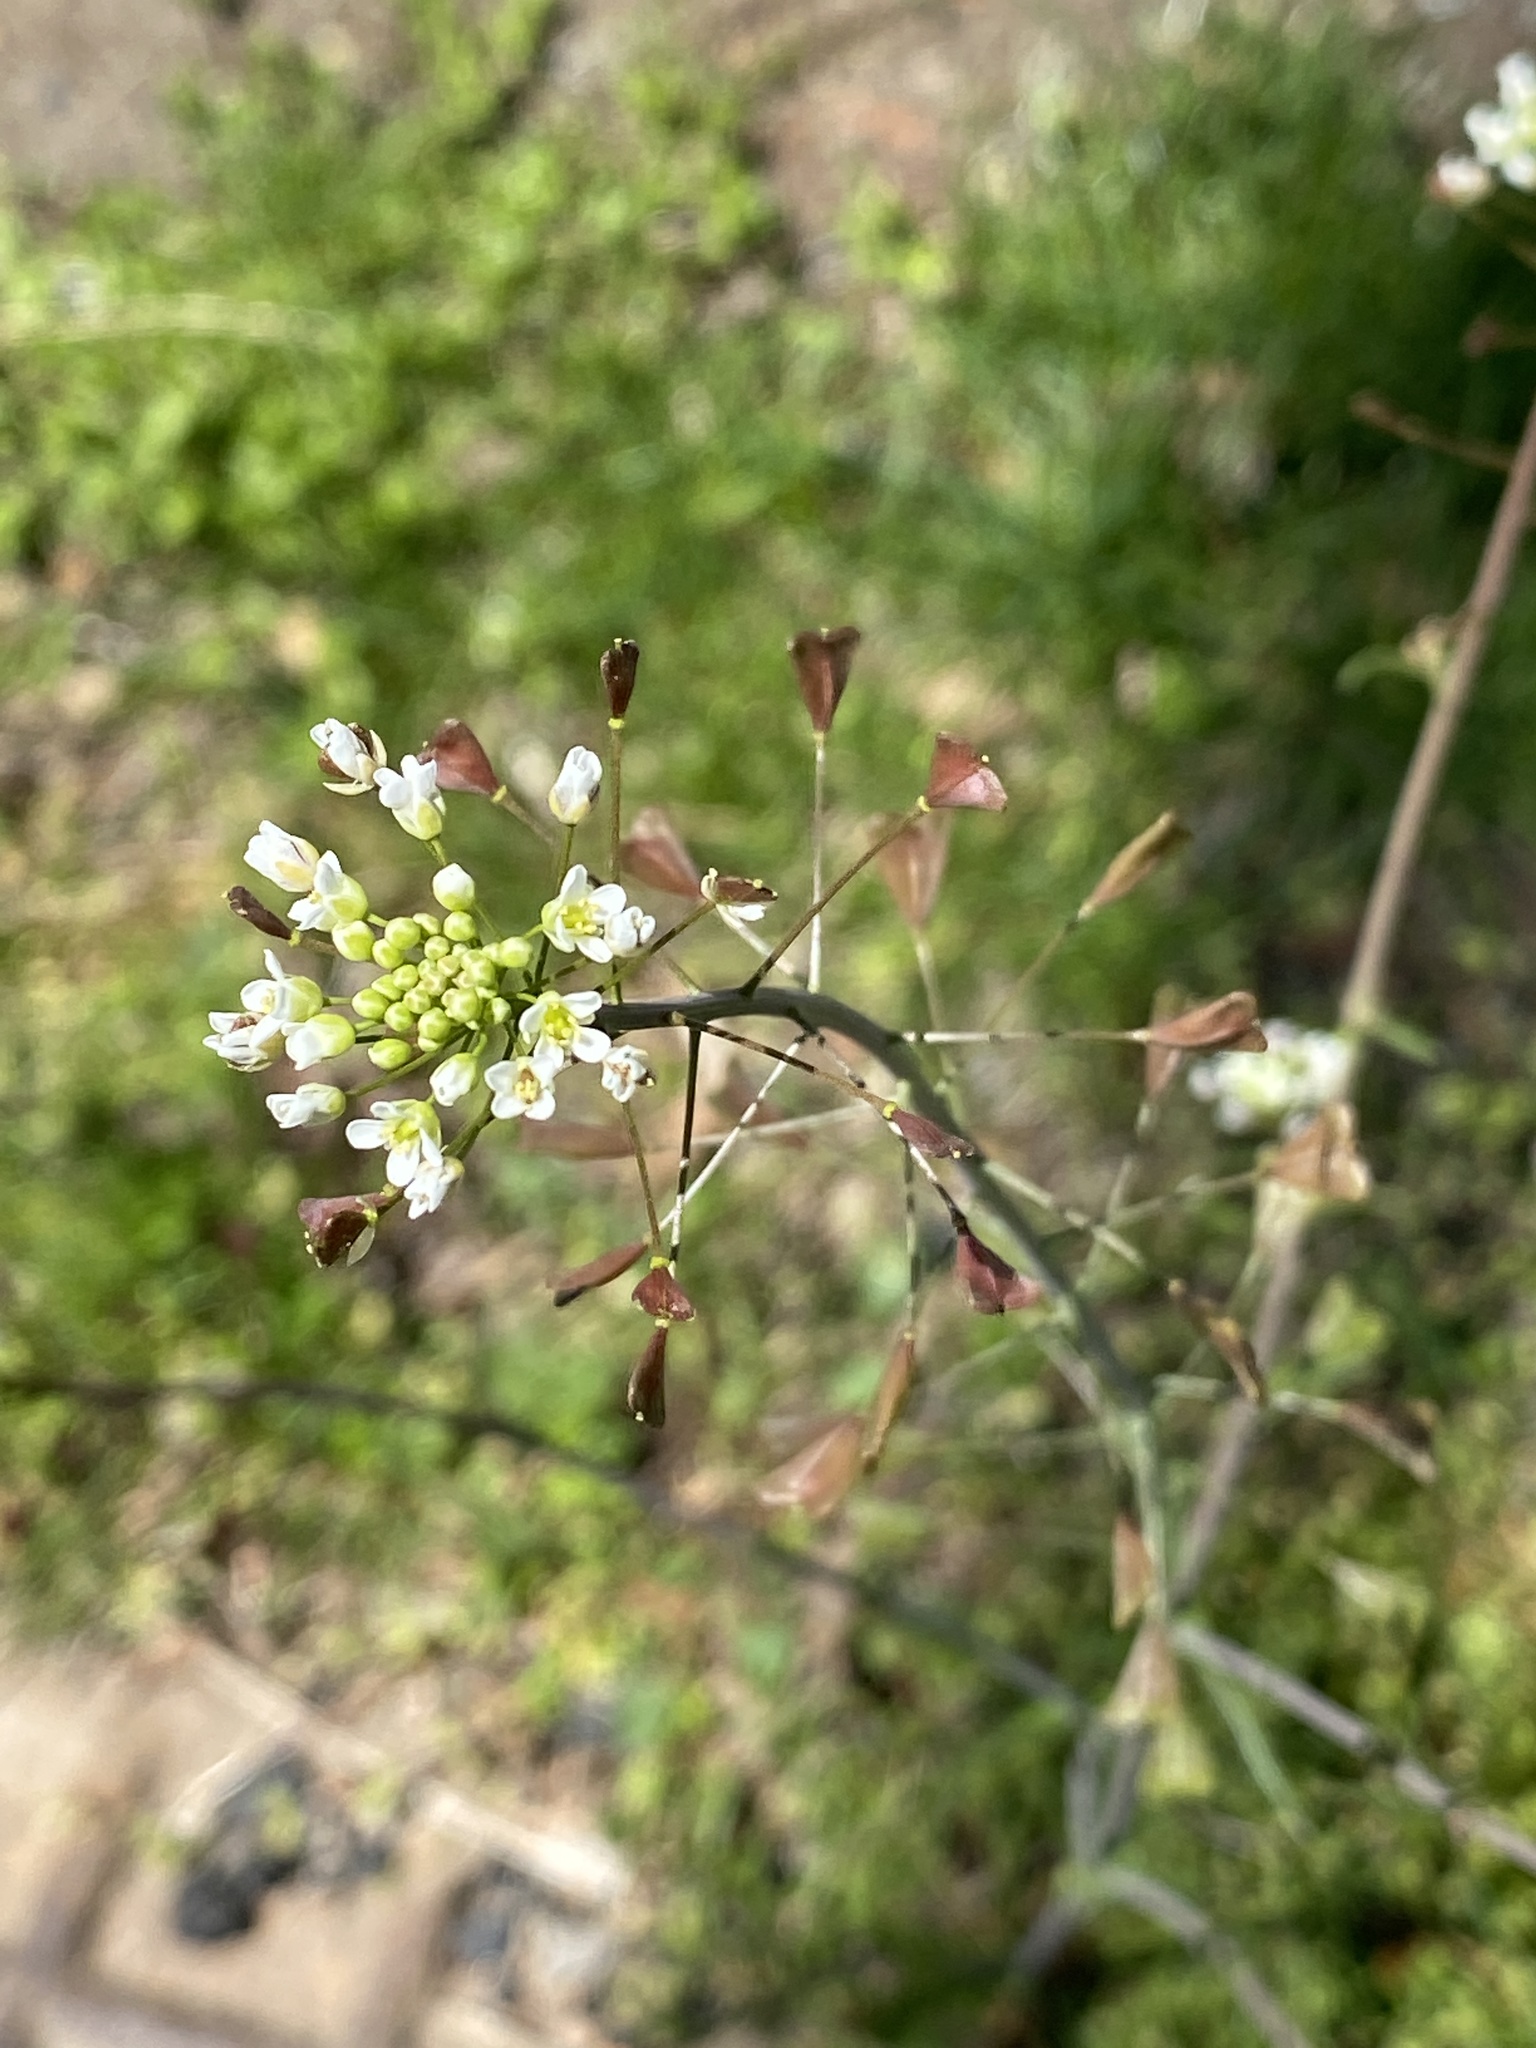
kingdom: Plantae
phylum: Tracheophyta
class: Magnoliopsida
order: Brassicales
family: Brassicaceae
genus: Capsella
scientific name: Capsella bursa-pastoris
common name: Shepherd's purse
